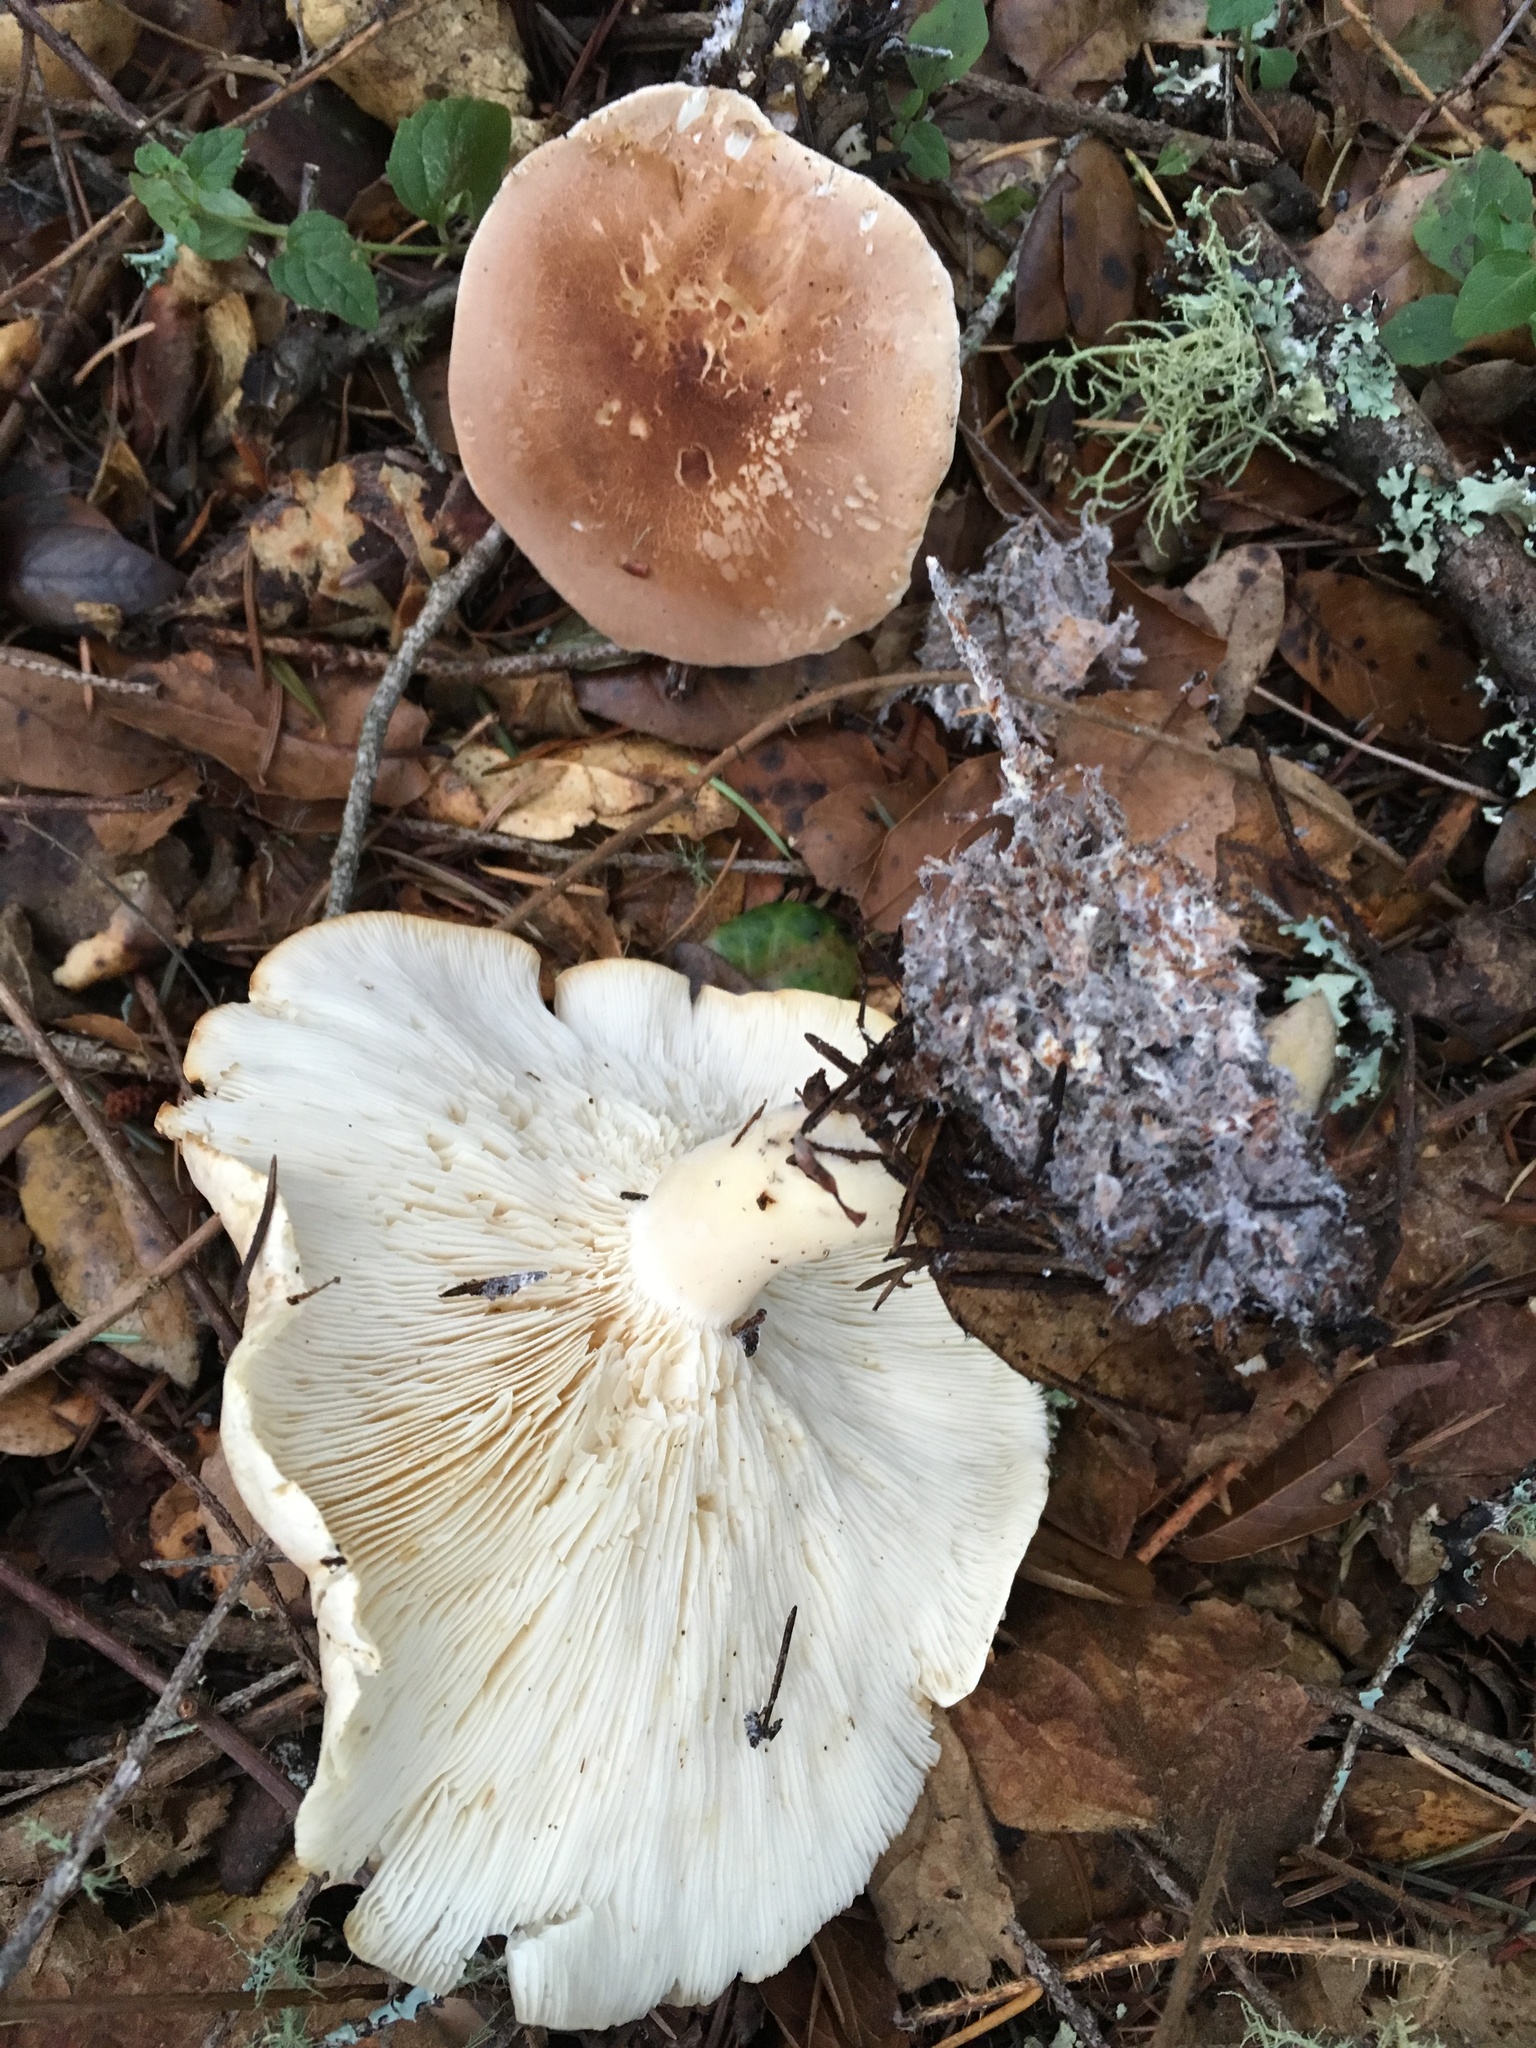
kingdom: Fungi
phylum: Basidiomycota
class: Agaricomycetes
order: Agaricales
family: Tricholomataceae
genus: Leucopaxillus
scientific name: Leucopaxillus gentianeus
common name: Bitter funnel
